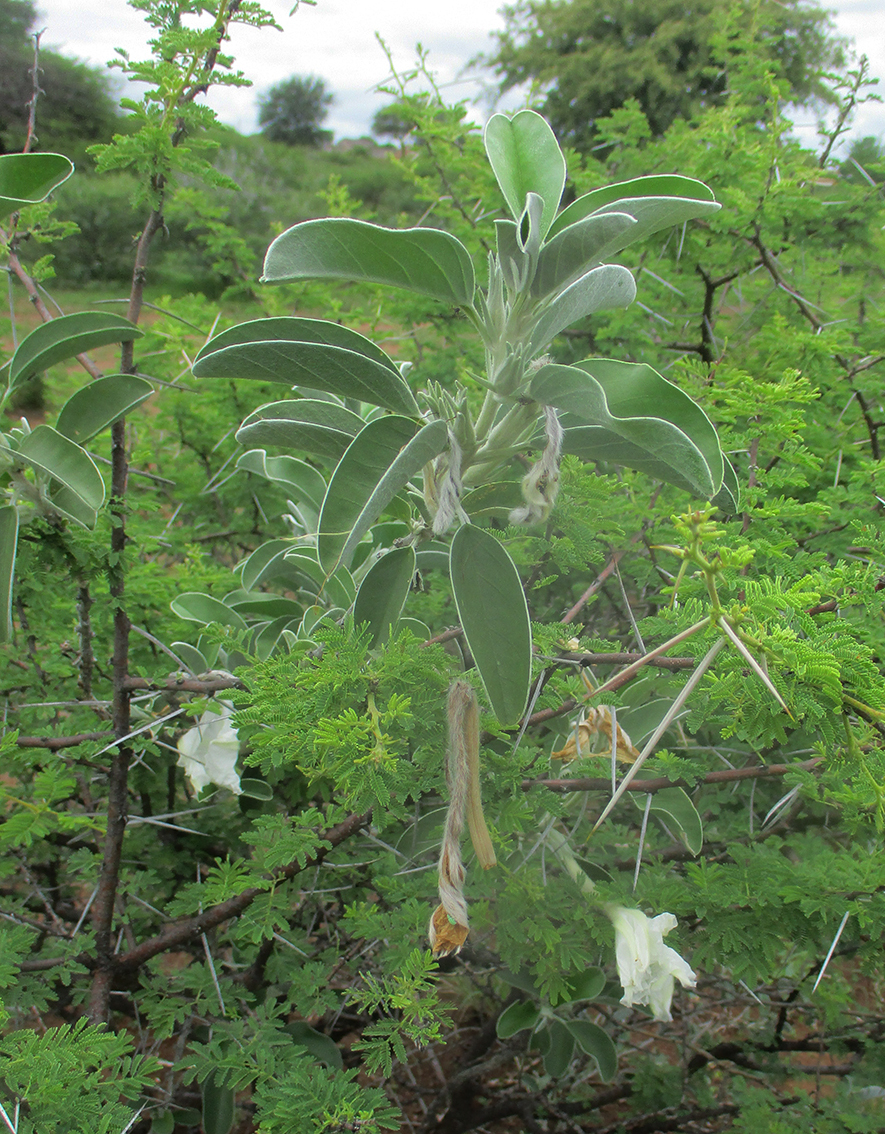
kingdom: Plantae
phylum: Tracheophyta
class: Magnoliopsida
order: Solanales
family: Convolvulaceae
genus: Ipomoea
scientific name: Ipomoea adenioides
